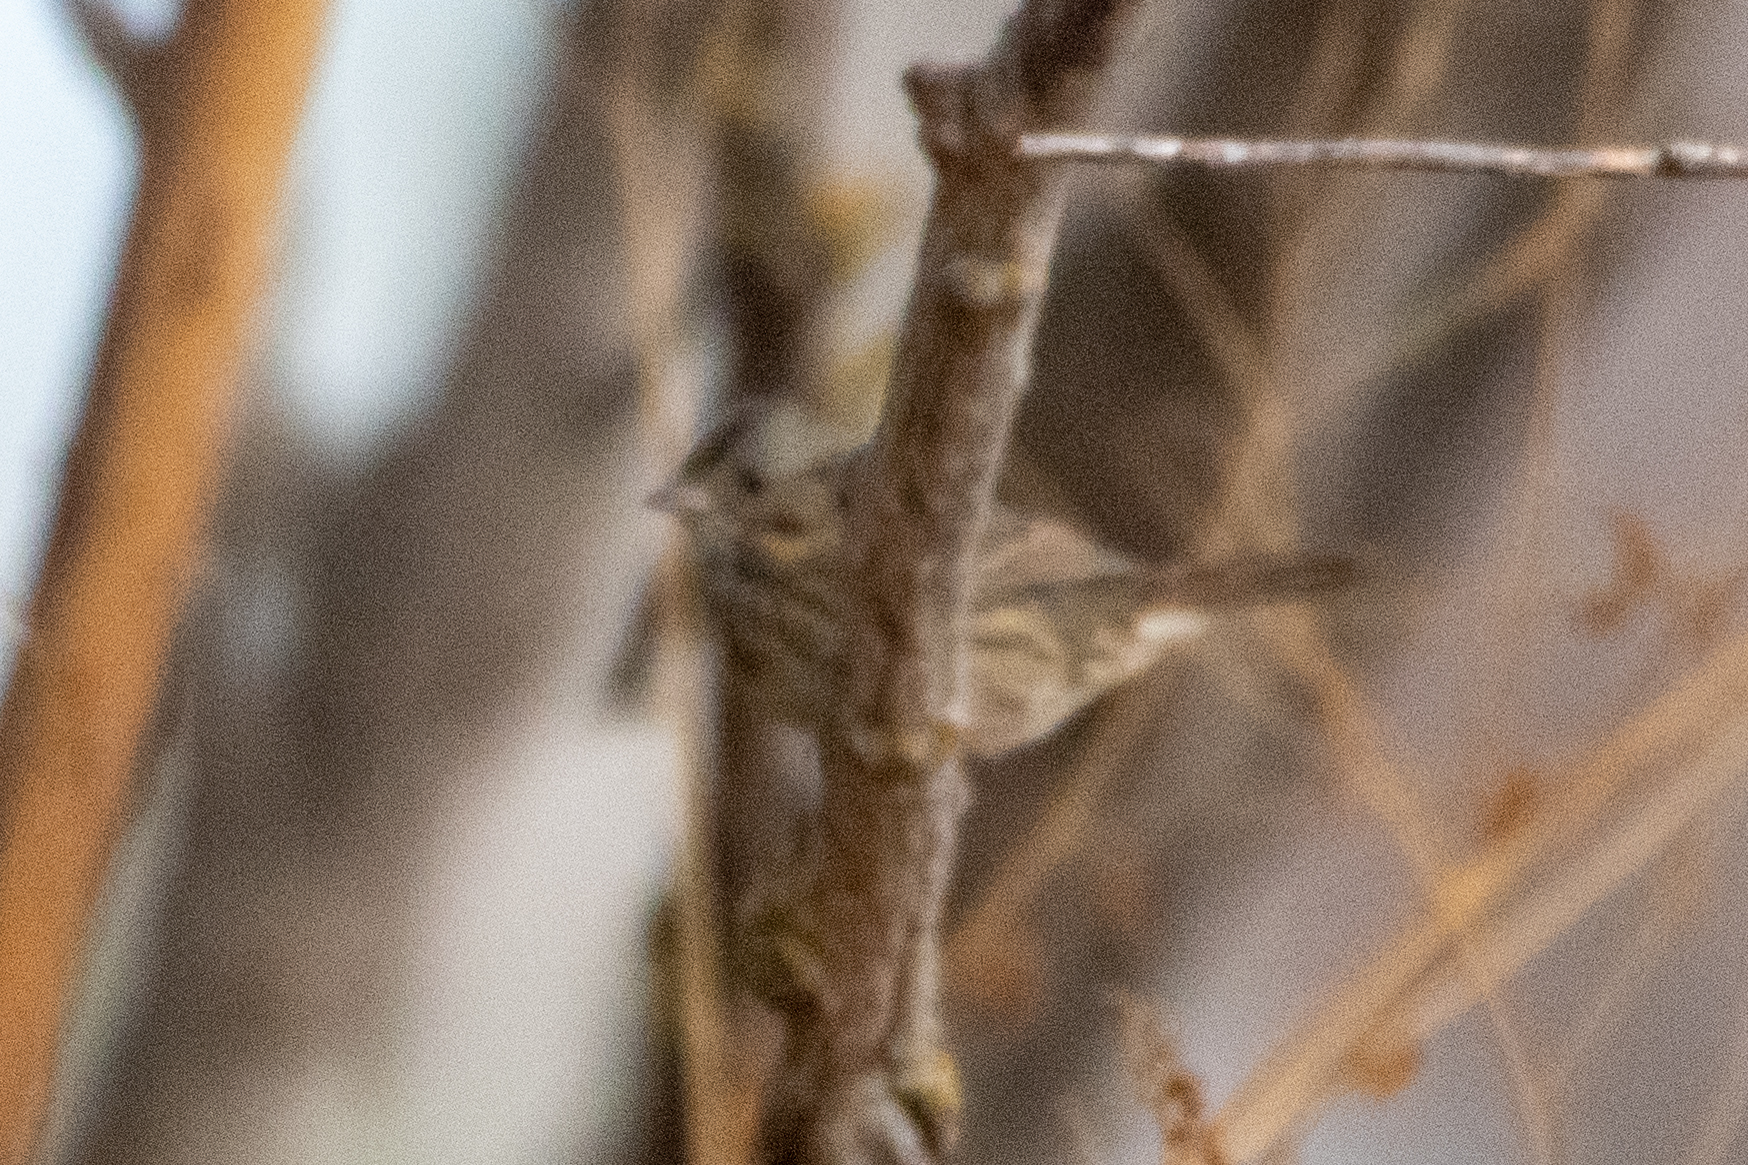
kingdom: Animalia
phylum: Chordata
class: Aves
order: Passeriformes
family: Passerellidae
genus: Melospiza
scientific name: Melospiza lincolnii
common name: Lincoln's sparrow
